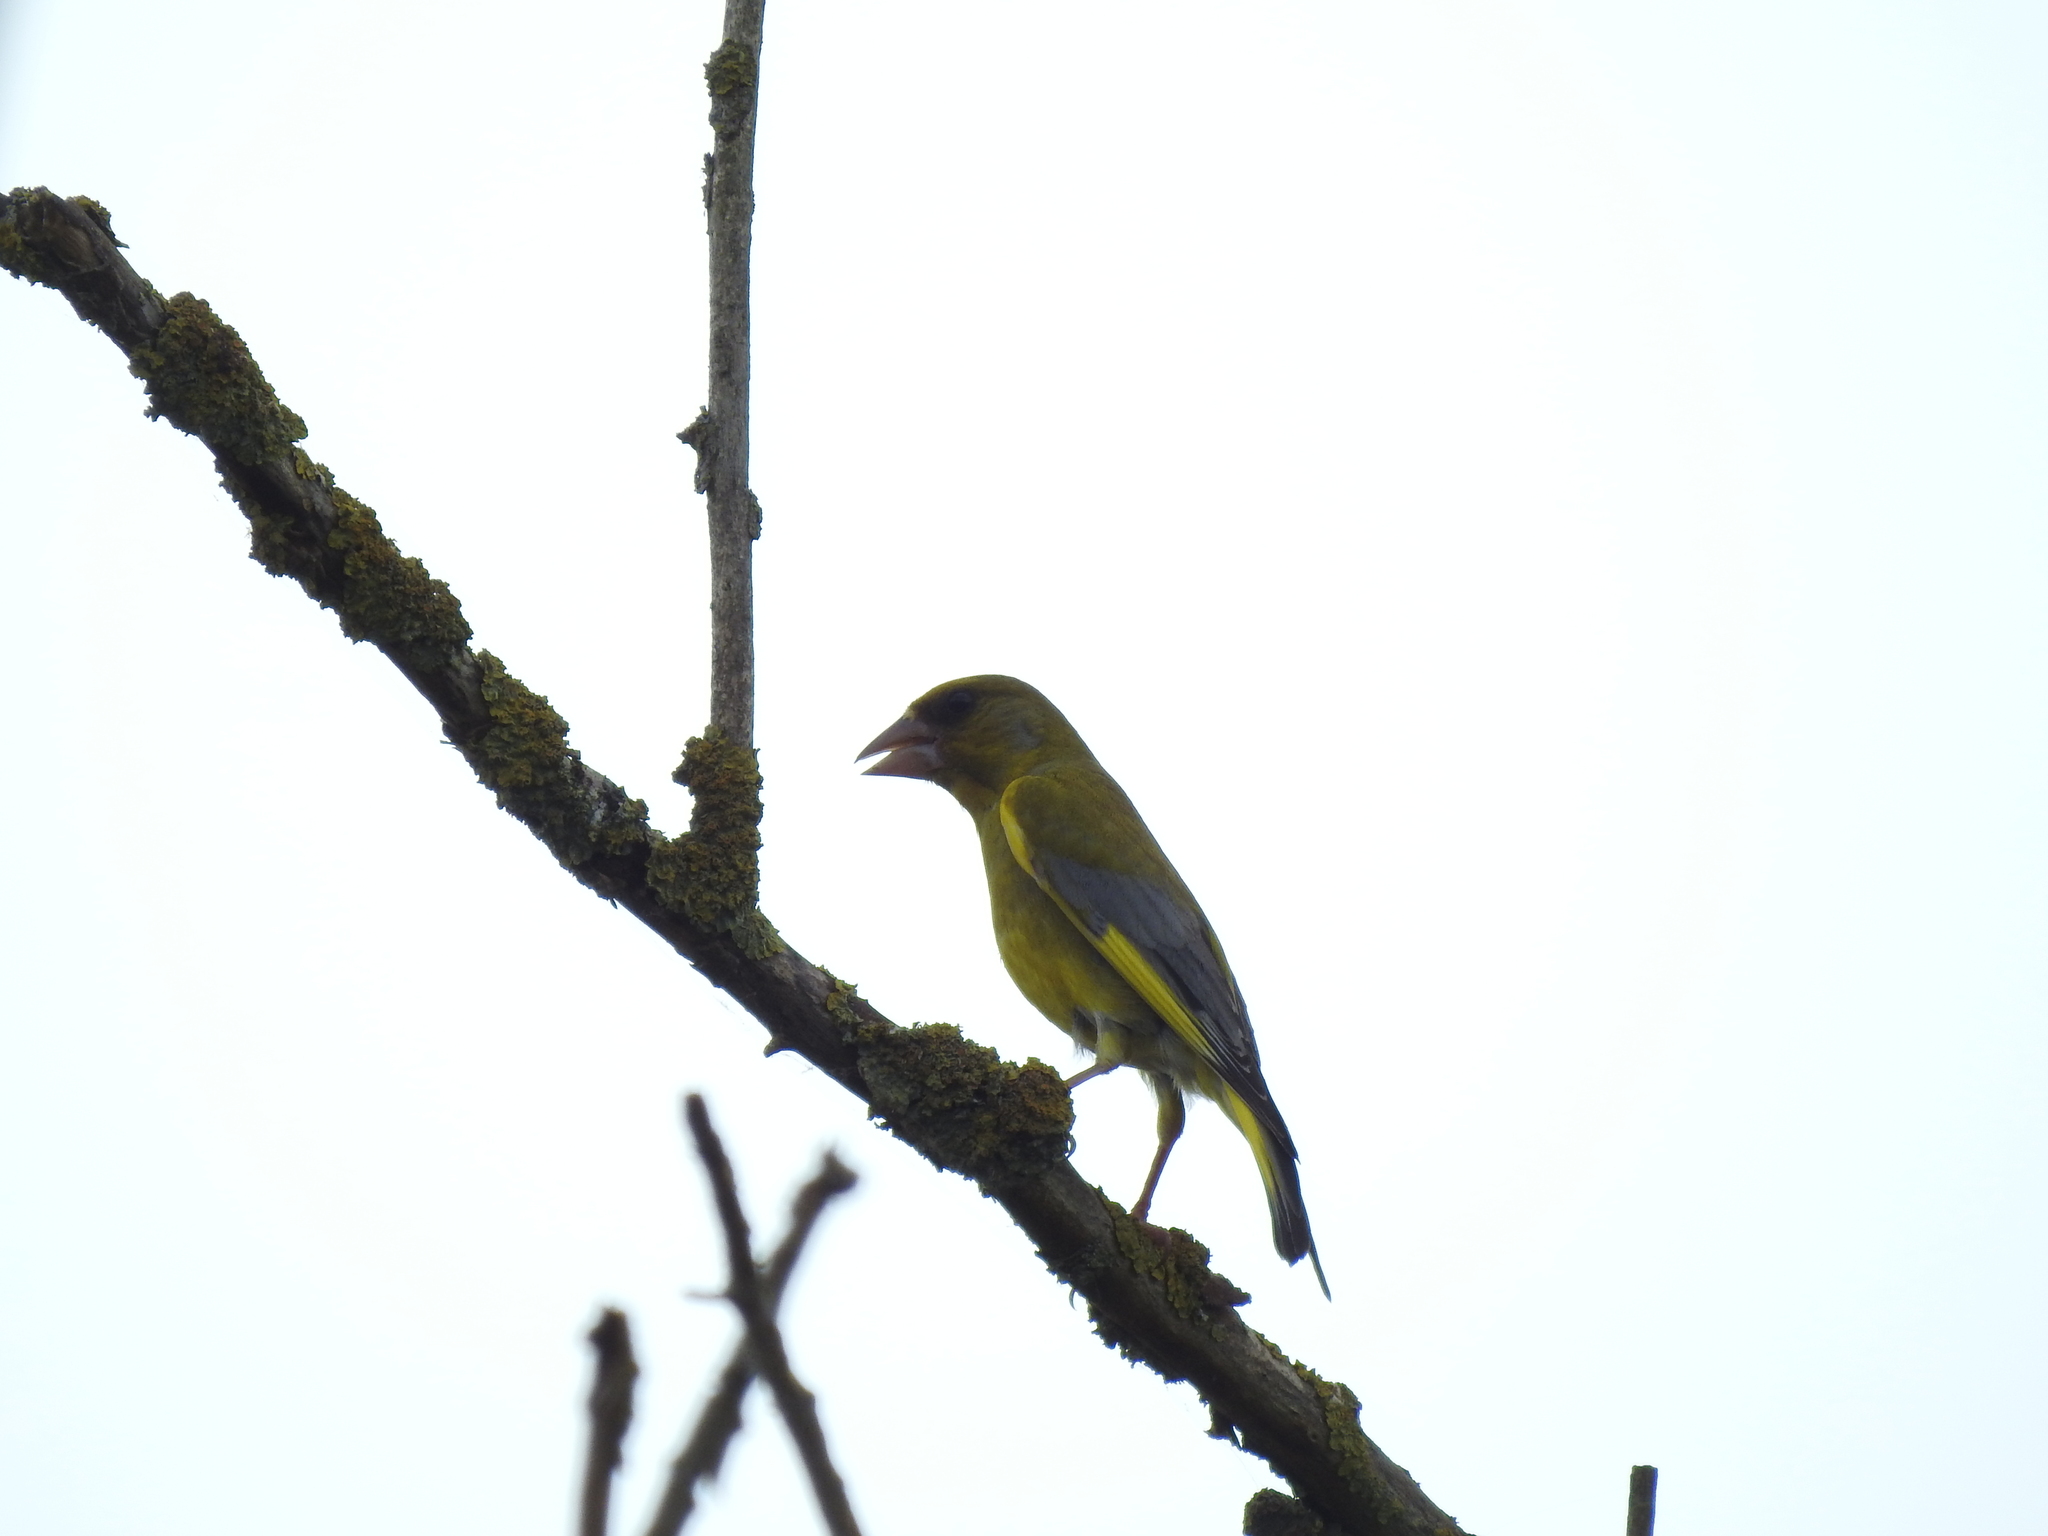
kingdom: Plantae
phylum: Tracheophyta
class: Liliopsida
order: Poales
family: Poaceae
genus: Chloris
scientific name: Chloris chloris
